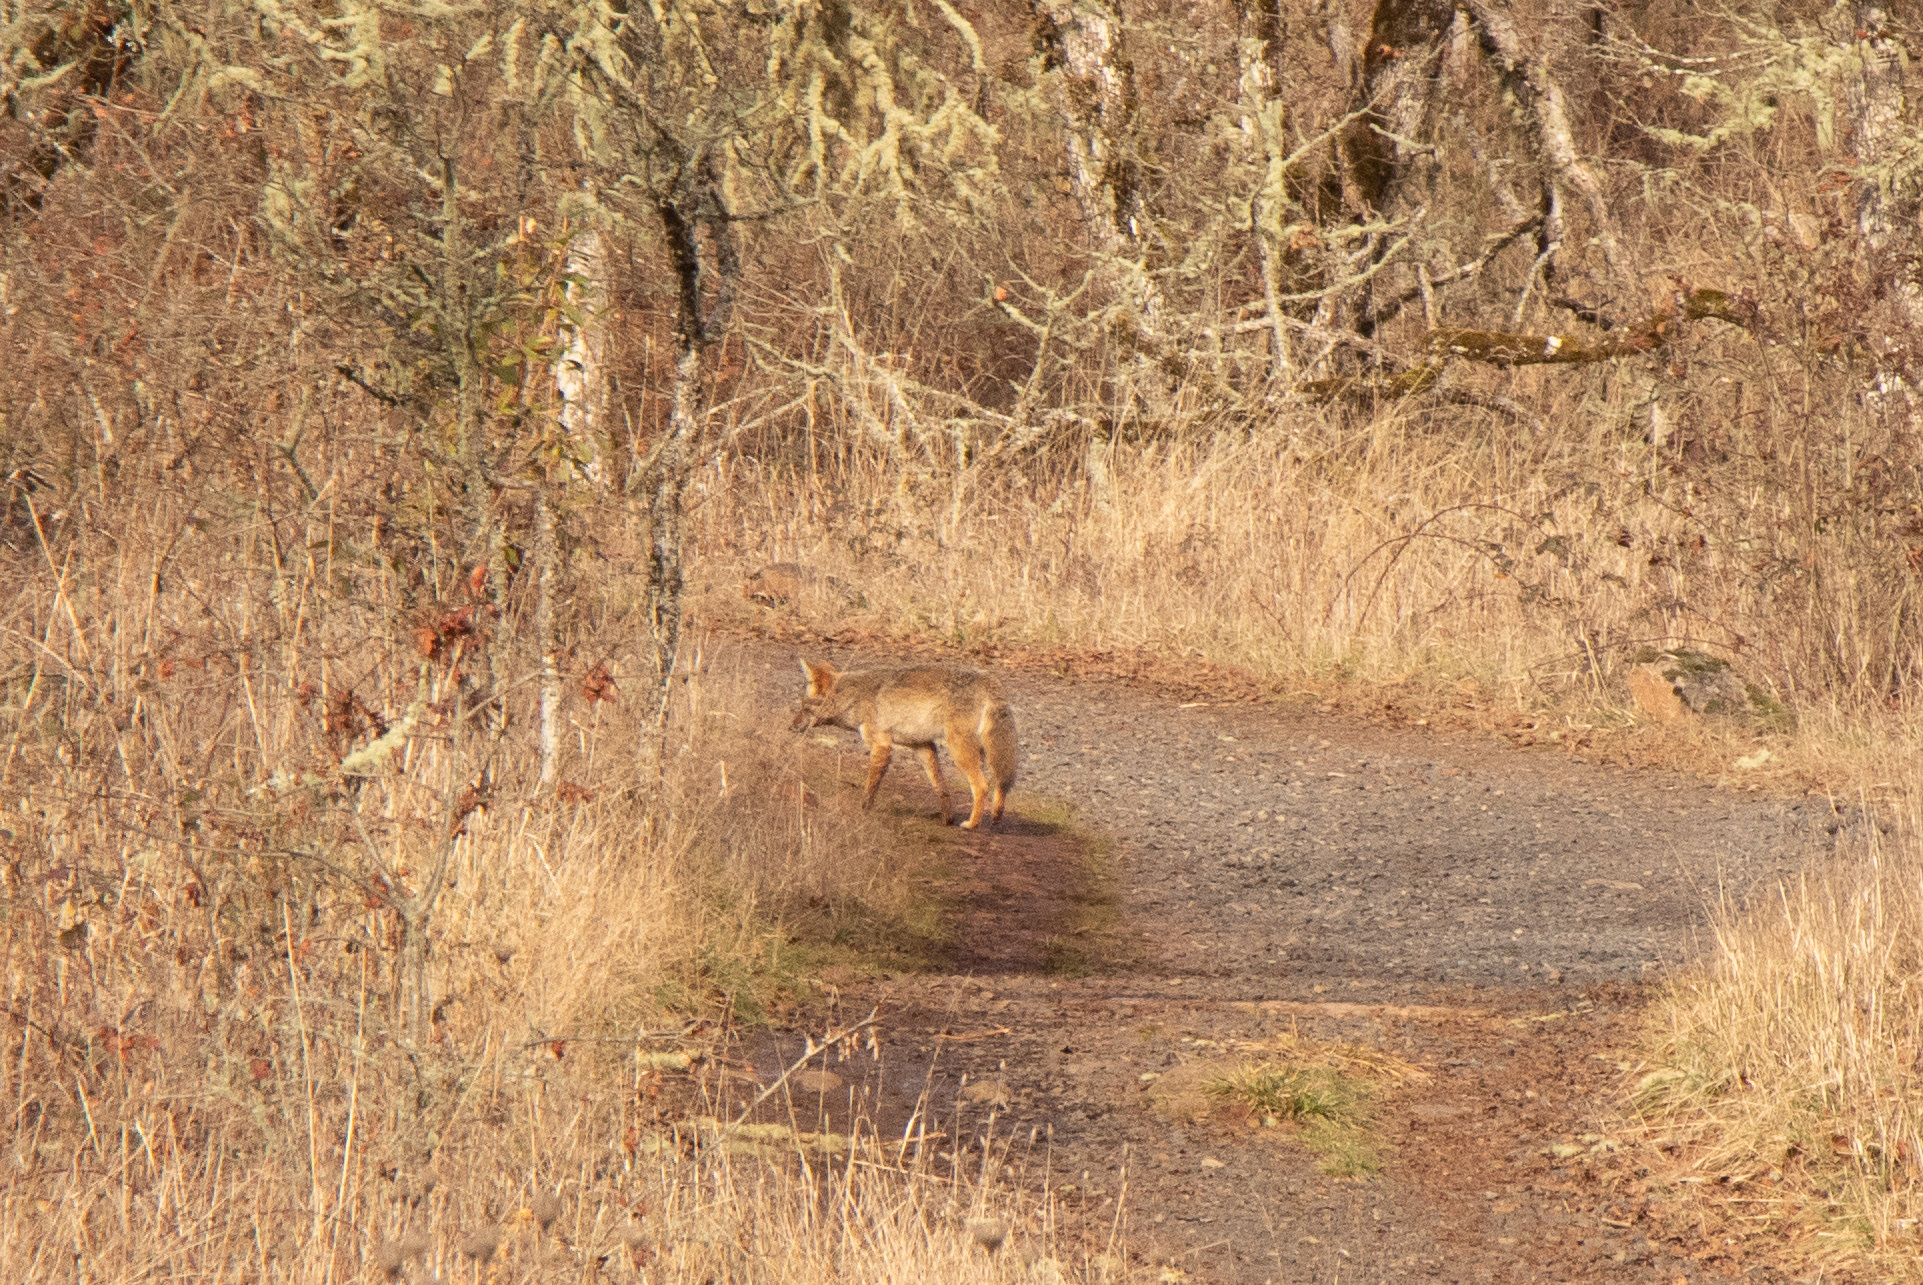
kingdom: Animalia
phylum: Chordata
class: Mammalia
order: Carnivora
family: Canidae
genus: Canis
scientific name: Canis latrans
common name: Coyote
